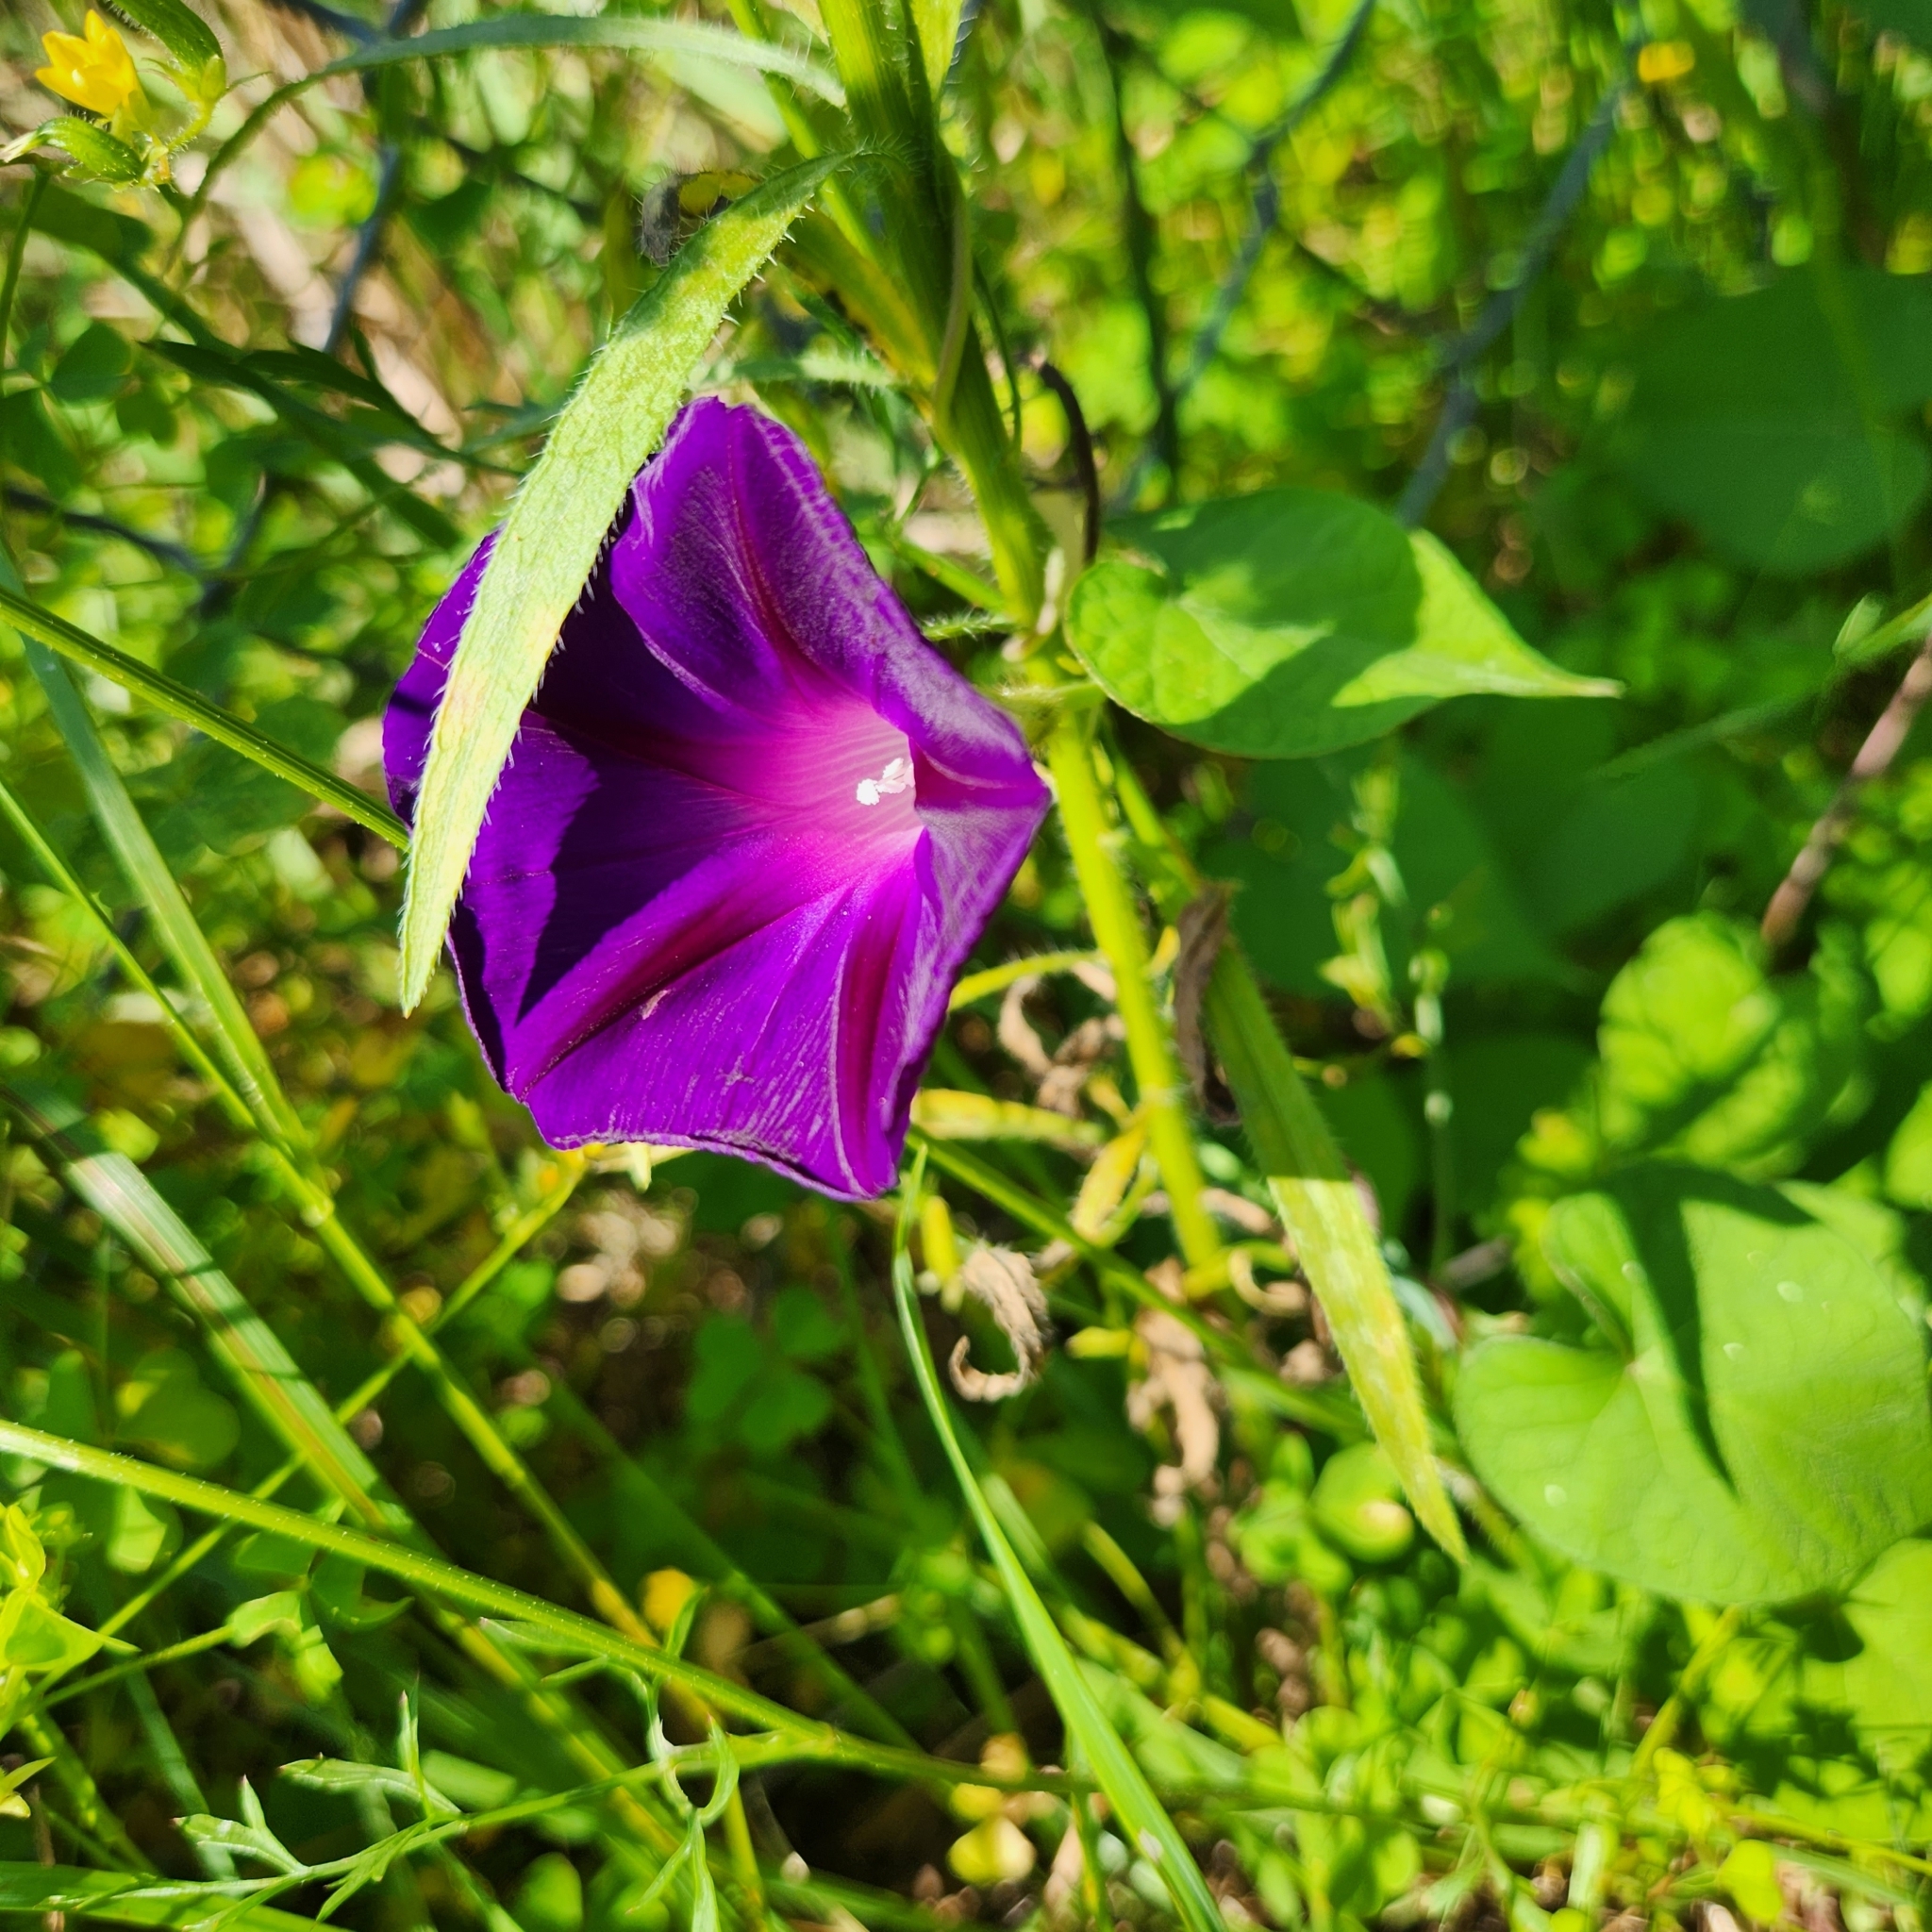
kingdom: Plantae
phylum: Tracheophyta
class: Magnoliopsida
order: Solanales
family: Convolvulaceae
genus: Ipomoea
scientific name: Ipomoea purpurea
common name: Common morning-glory
